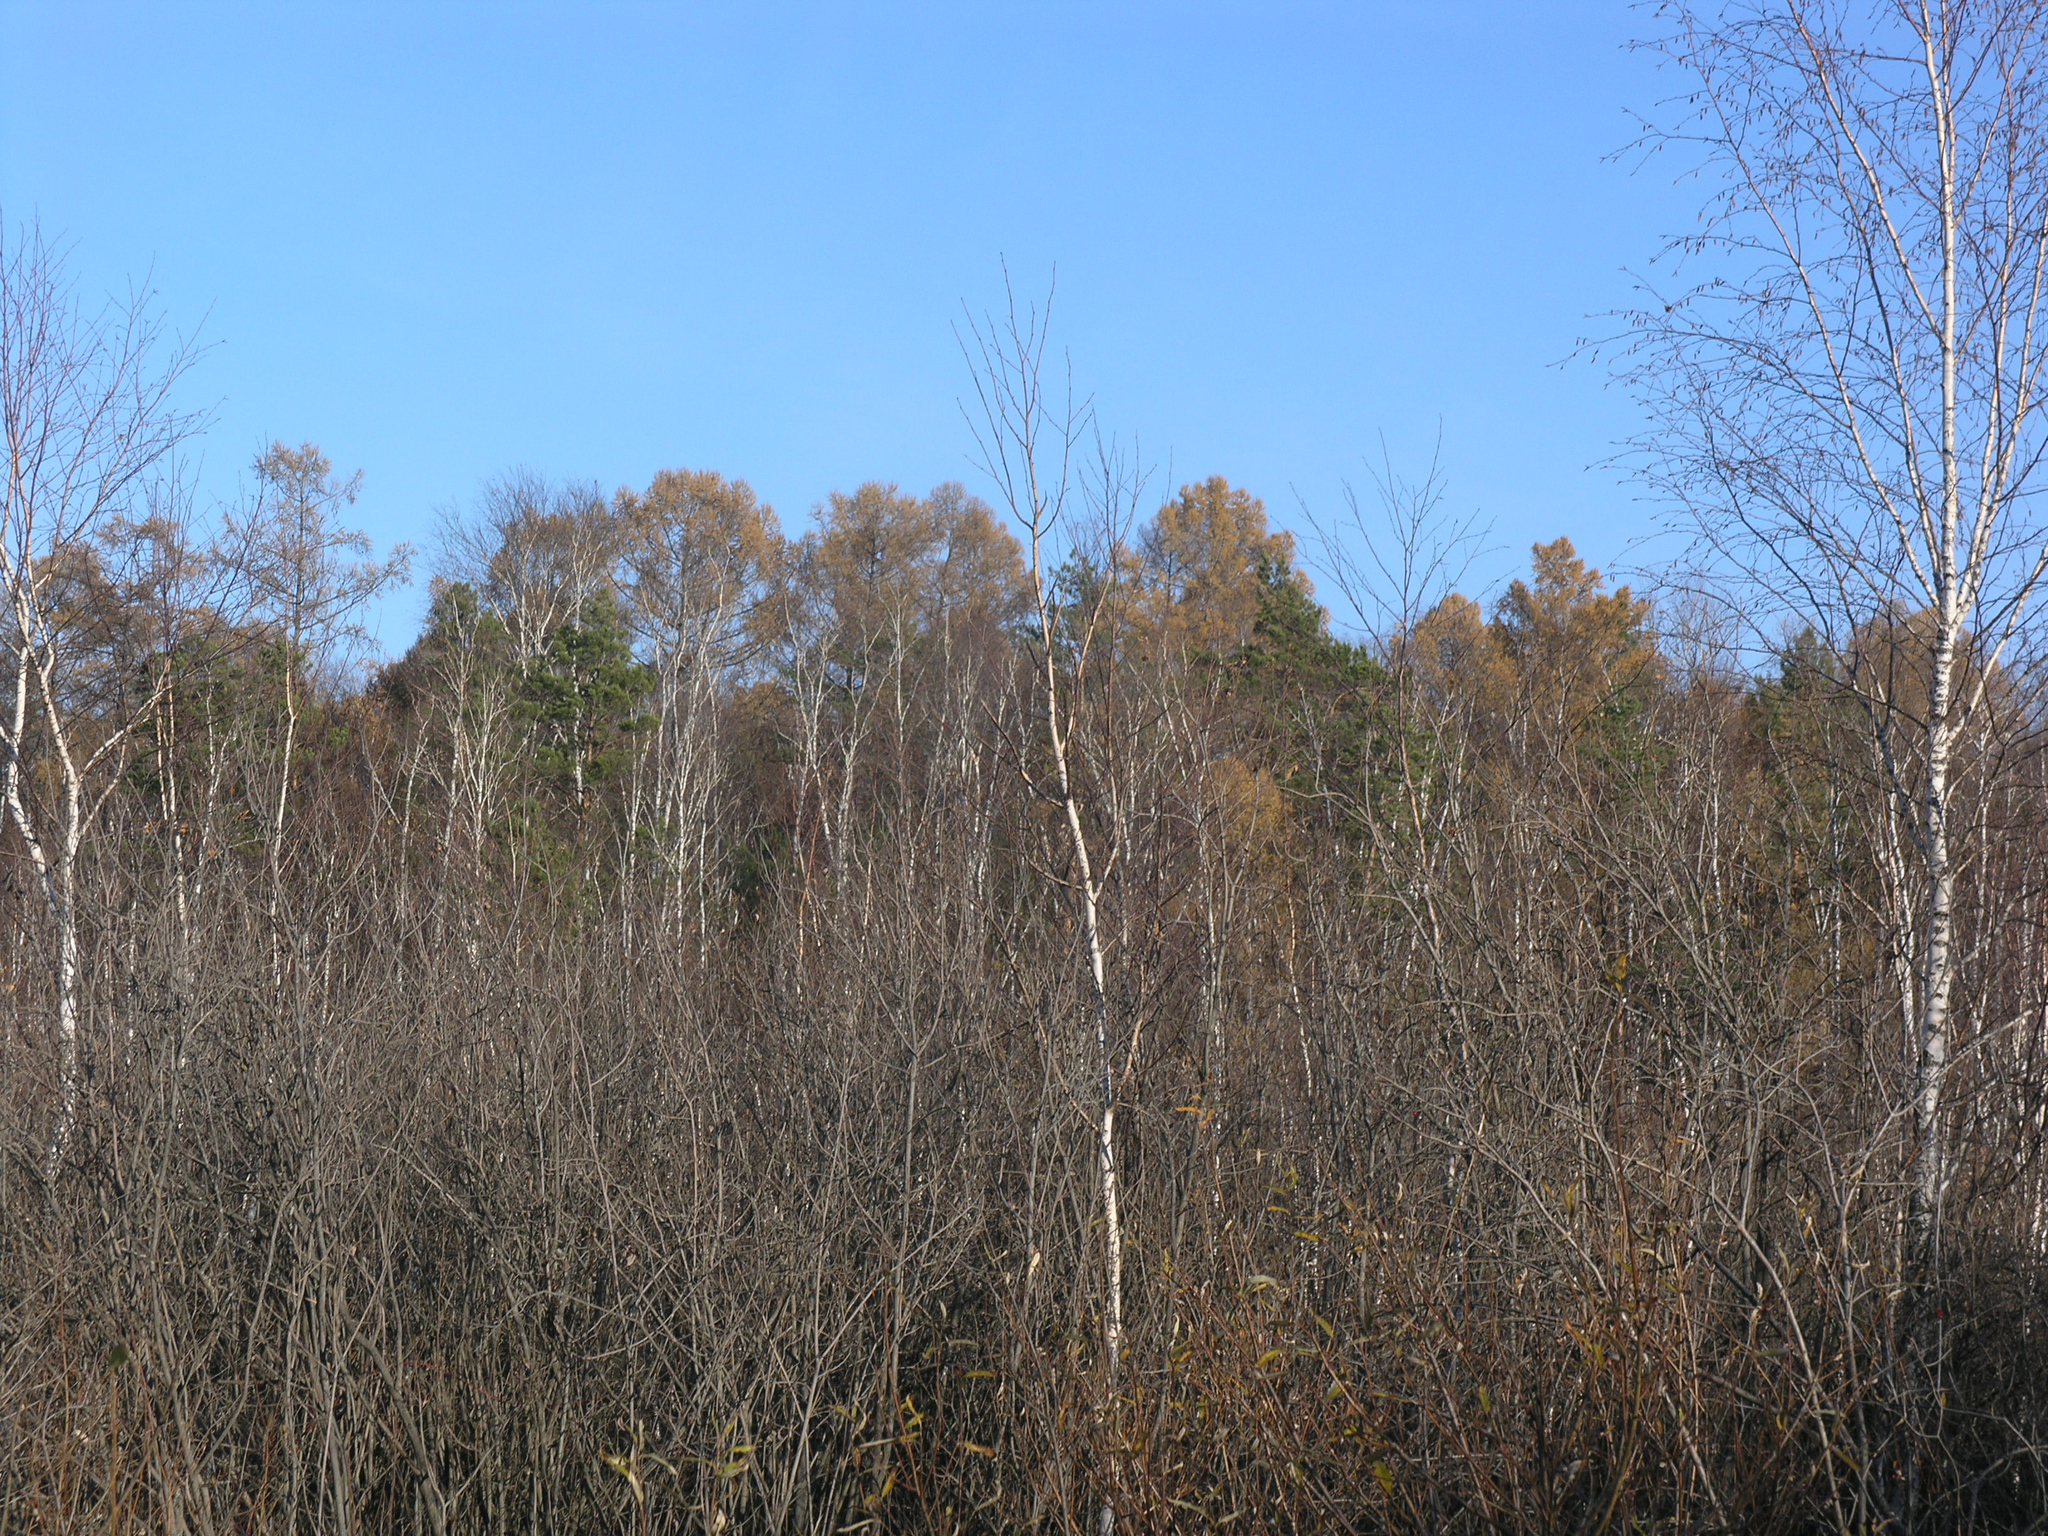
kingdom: Plantae
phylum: Tracheophyta
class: Pinopsida
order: Pinales
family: Pinaceae
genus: Larix
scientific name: Larix sibirica
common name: Siberian larch
